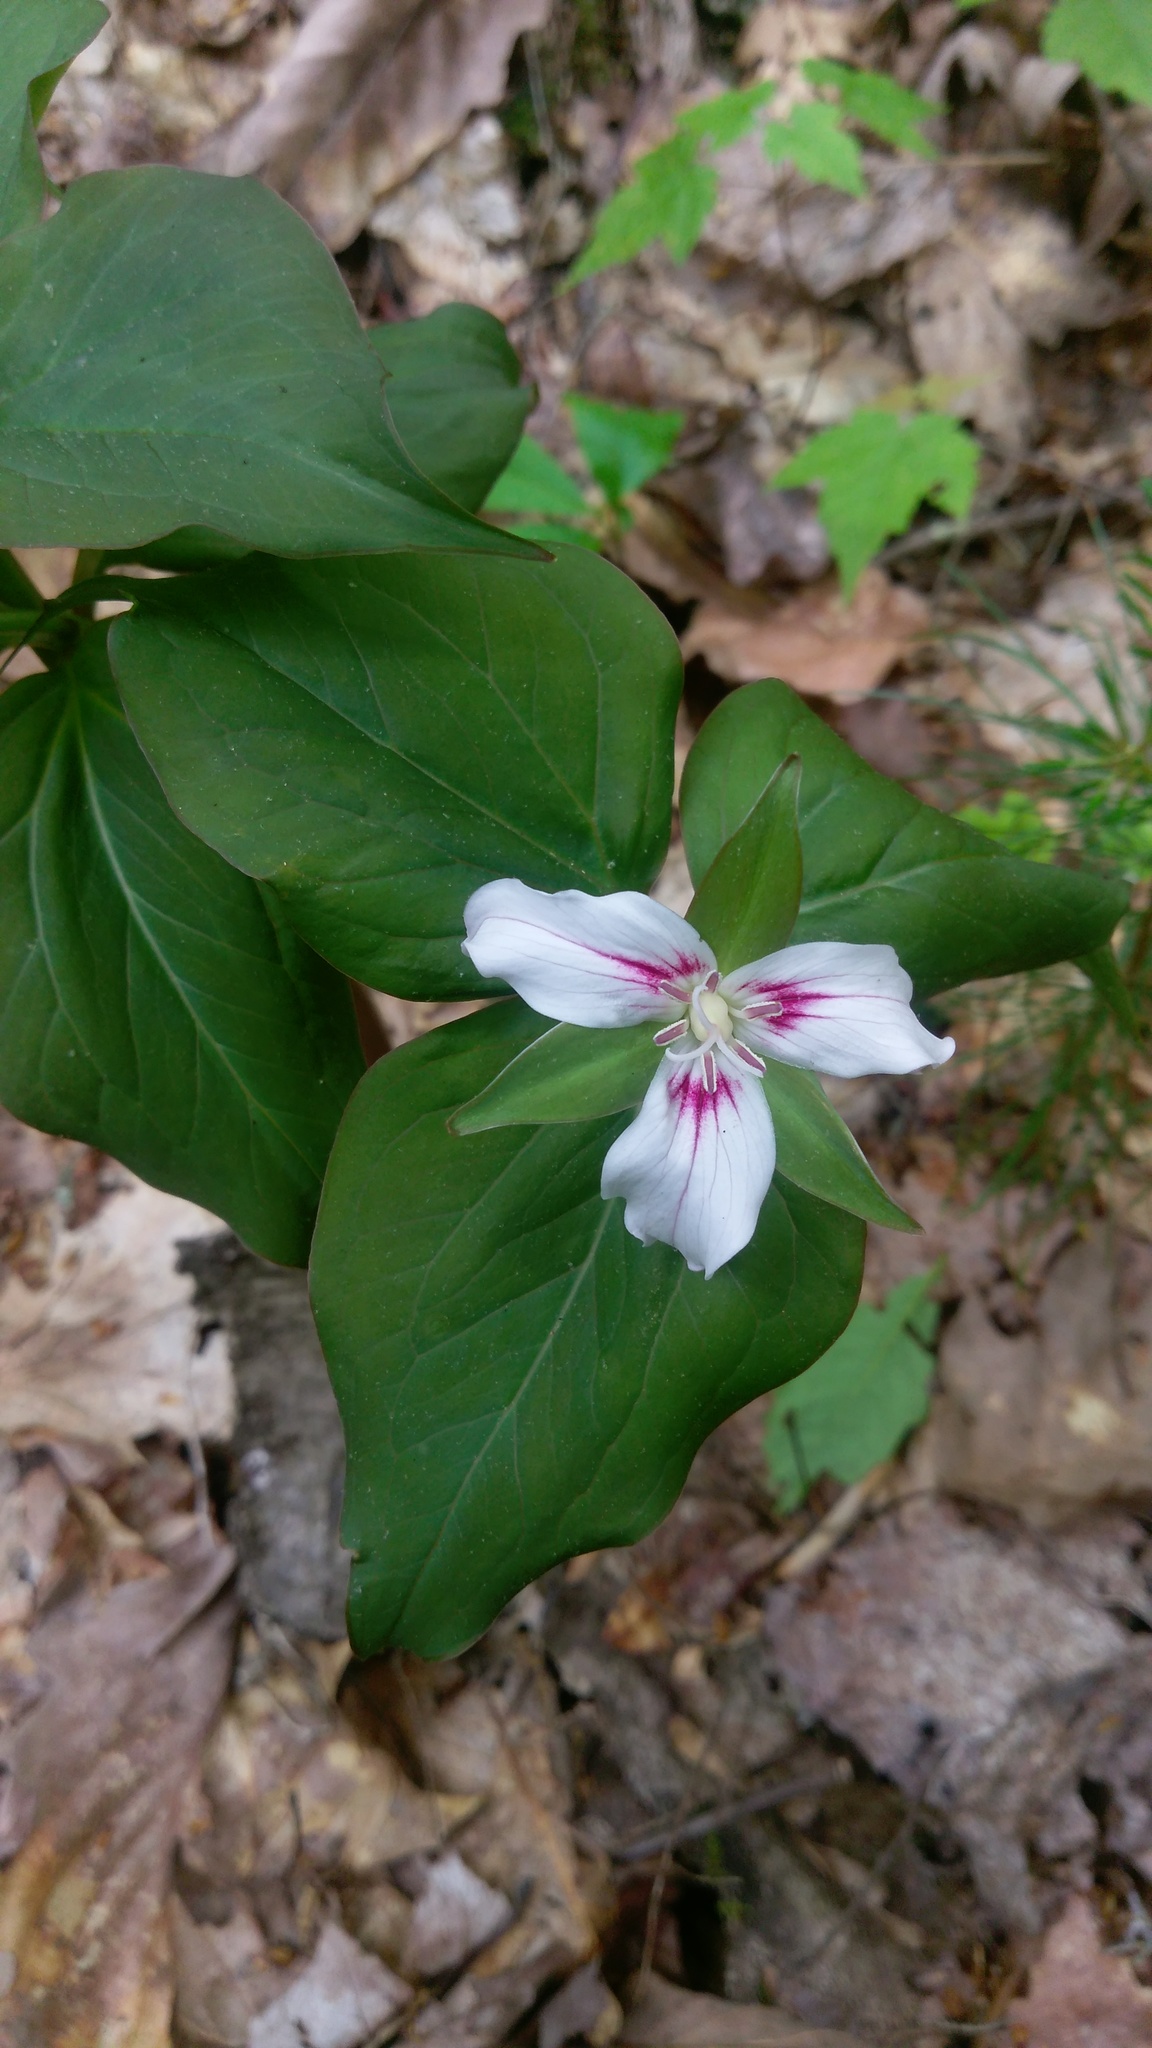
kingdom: Plantae
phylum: Tracheophyta
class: Liliopsida
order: Liliales
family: Melanthiaceae
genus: Trillium
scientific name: Trillium undulatum
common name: Paint trillium
